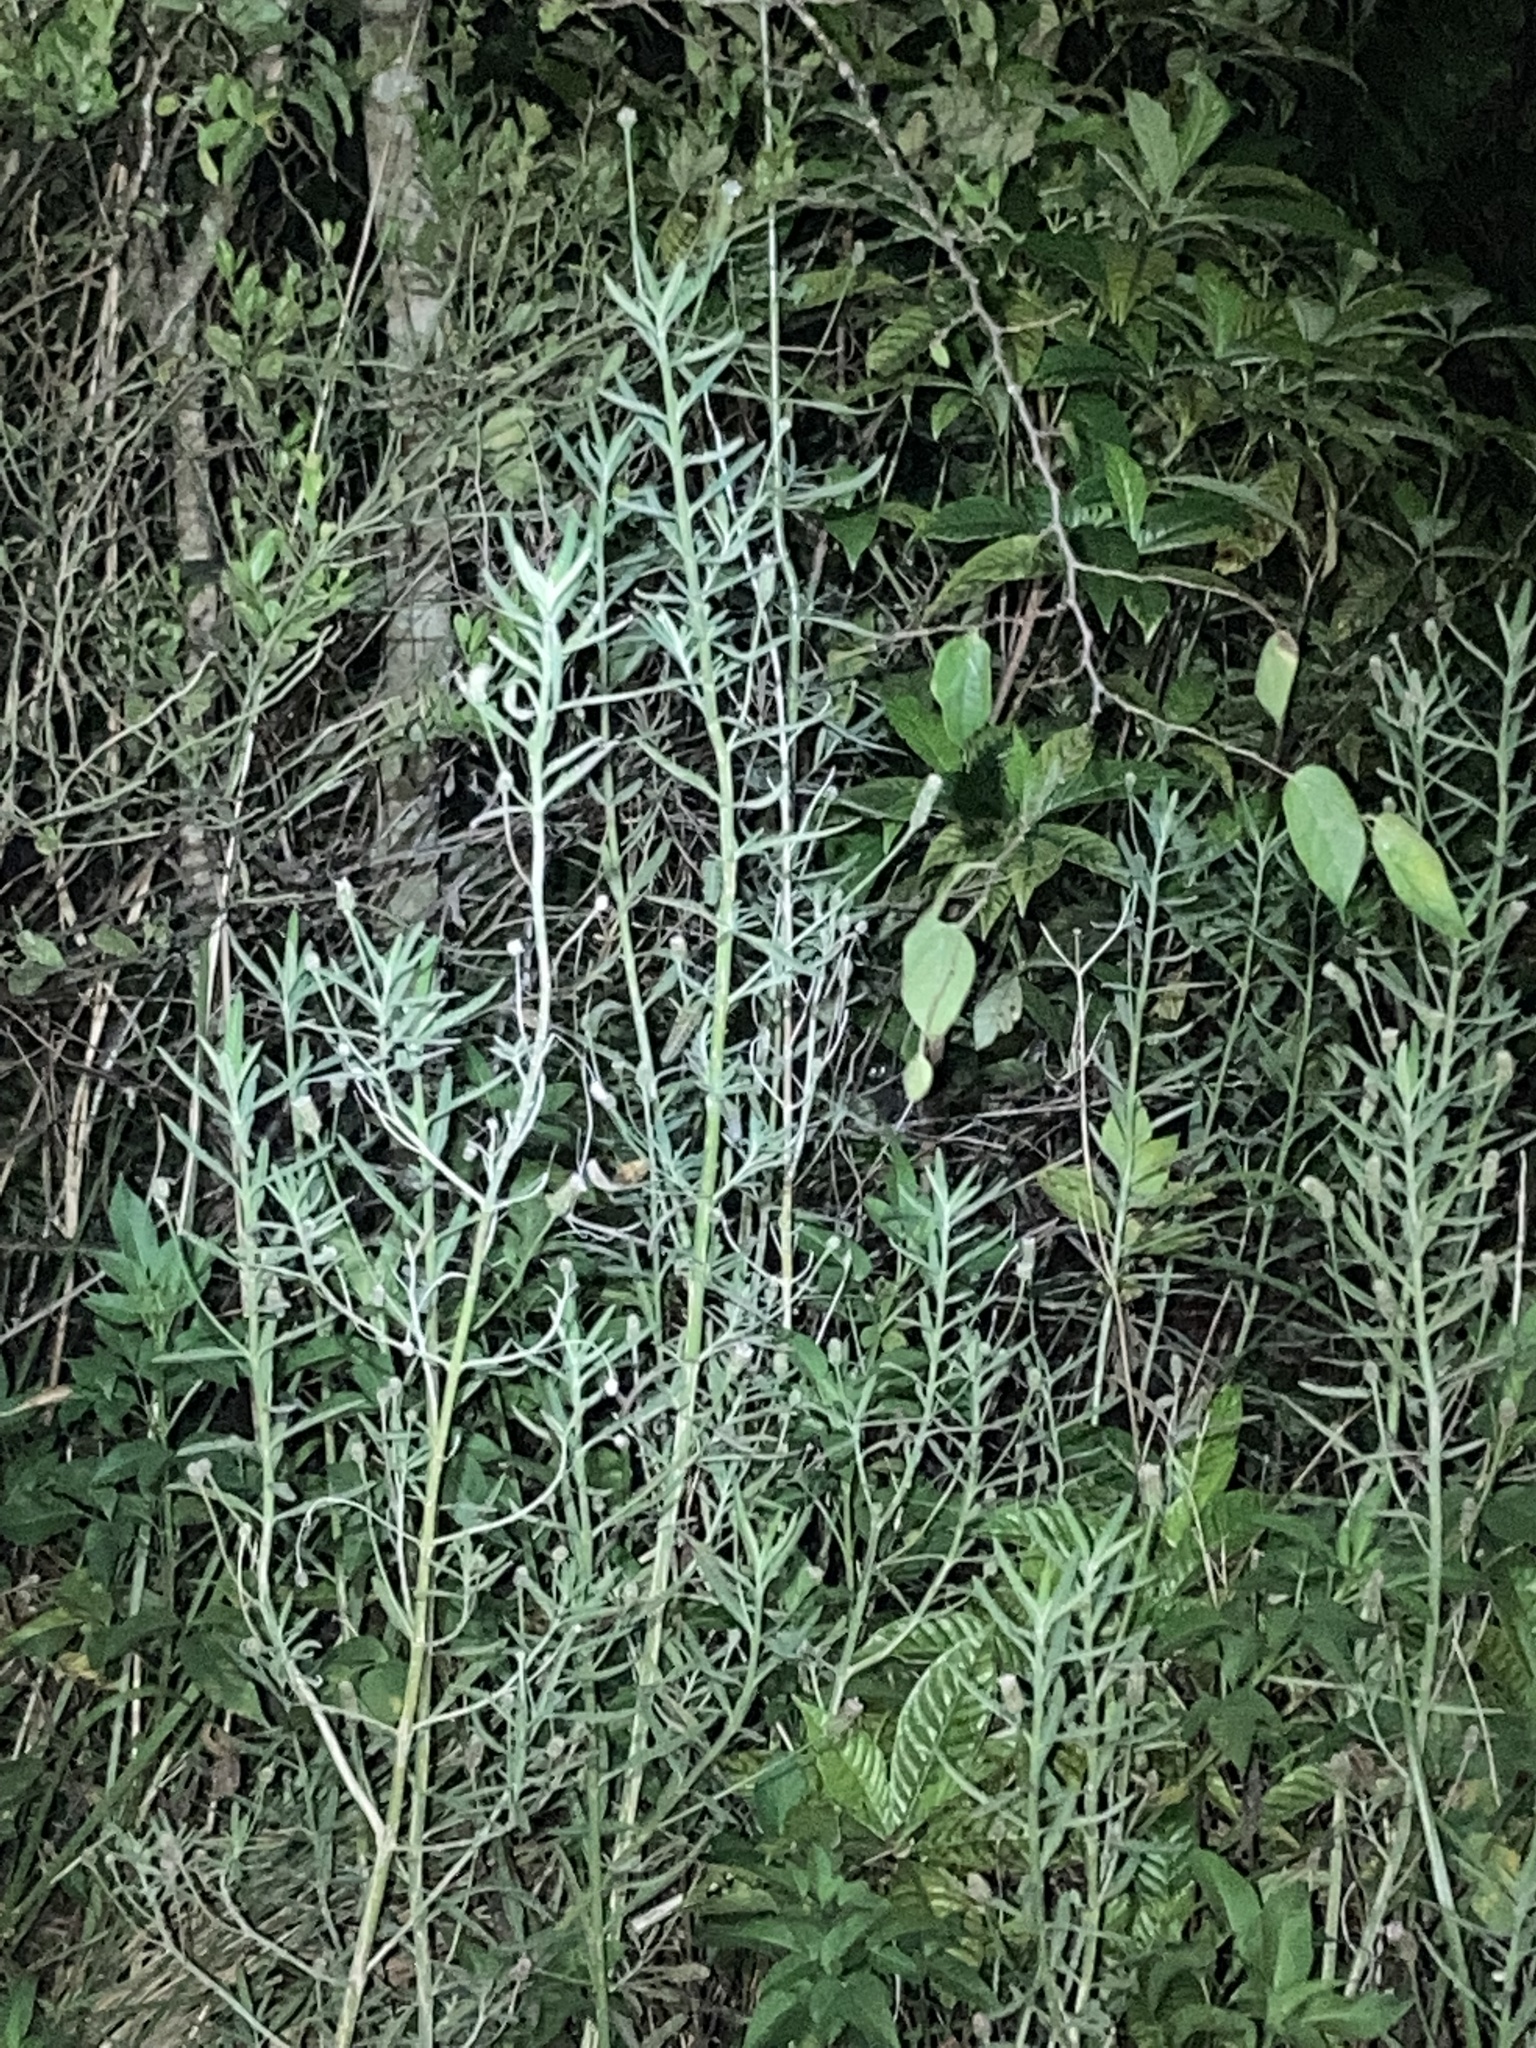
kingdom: Plantae
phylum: Tracheophyta
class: Magnoliopsida
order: Lamiales
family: Verbenaceae
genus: Lippia
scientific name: Lippia stoechadifolia
